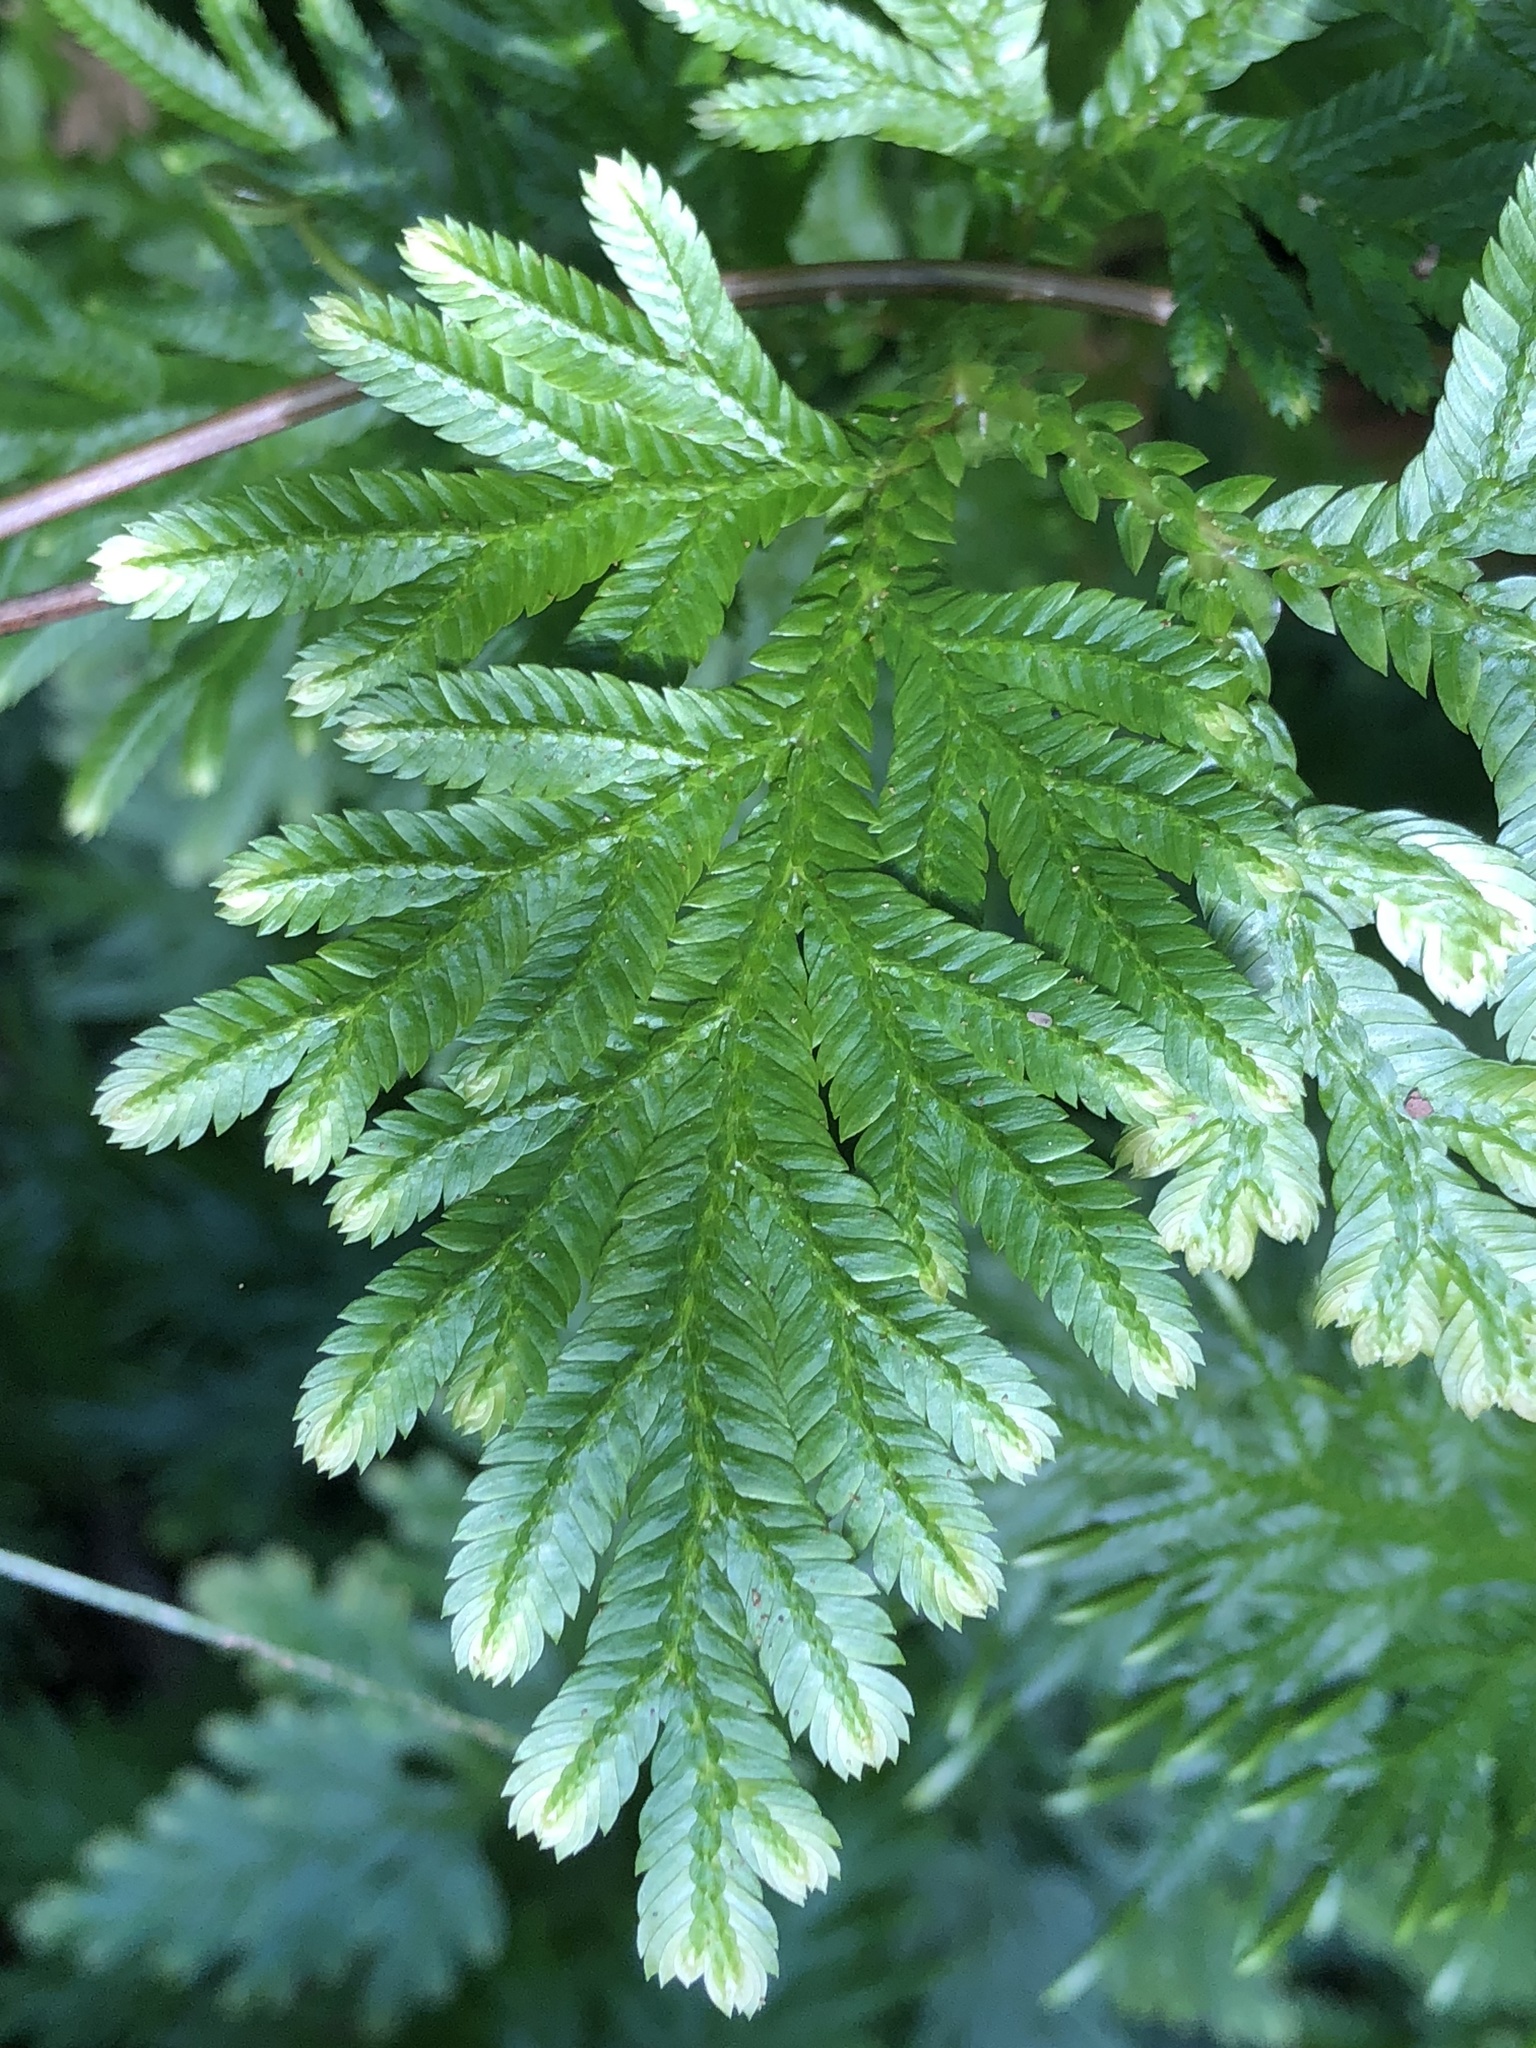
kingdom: Plantae
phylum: Tracheophyta
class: Lycopodiopsida
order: Selaginellales
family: Selaginellaceae
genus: Selaginella
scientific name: Selaginella plana
